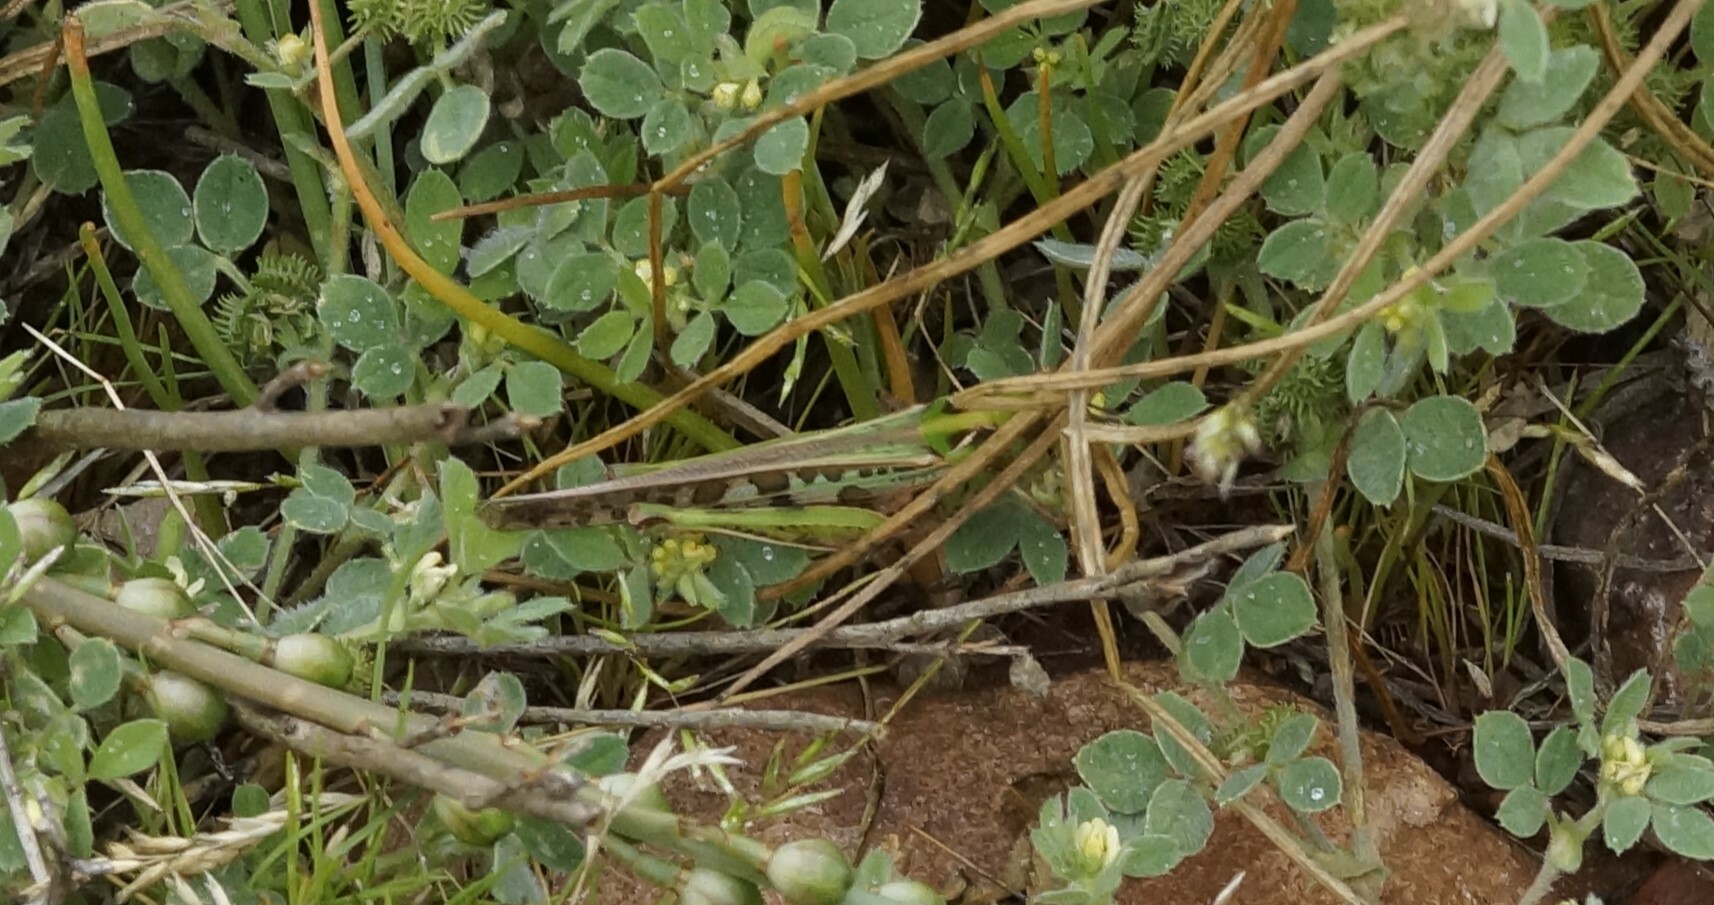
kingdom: Animalia
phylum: Arthropoda
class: Insecta
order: Orthoptera
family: Acrididae
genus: Chortoicetes
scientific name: Chortoicetes terminifera
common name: Australian plague locust
